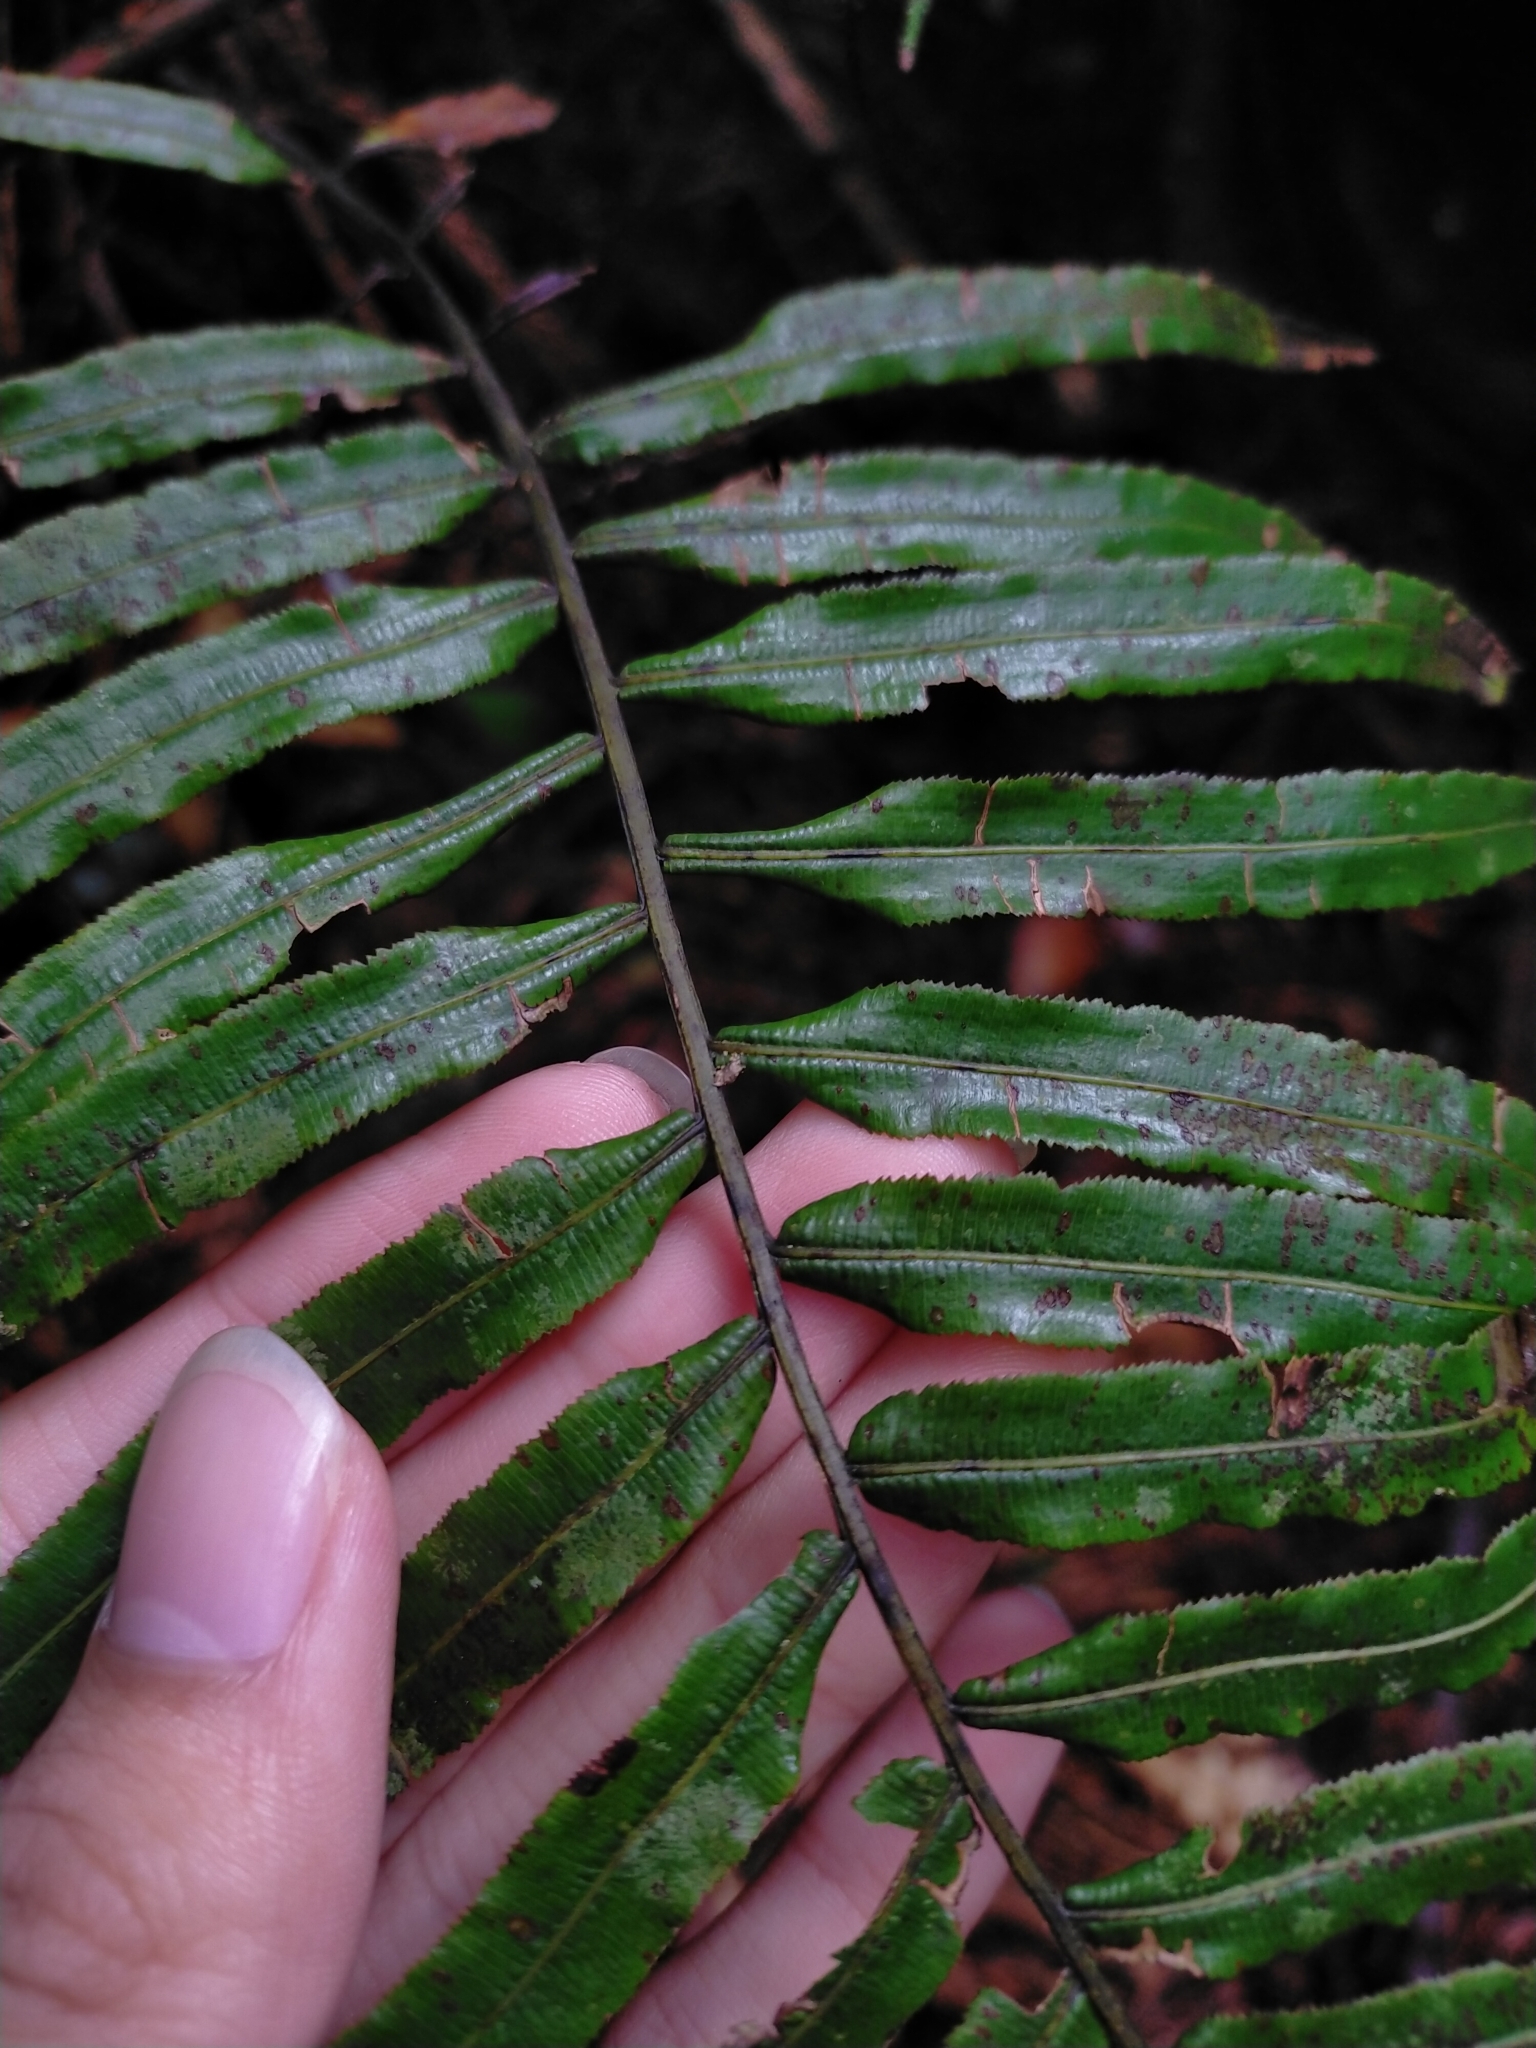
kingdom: Plantae
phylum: Tracheophyta
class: Polypodiopsida
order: Cyatheales
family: Plagiogyriaceae
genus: Plagiogyria
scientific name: Plagiogyria glauca
